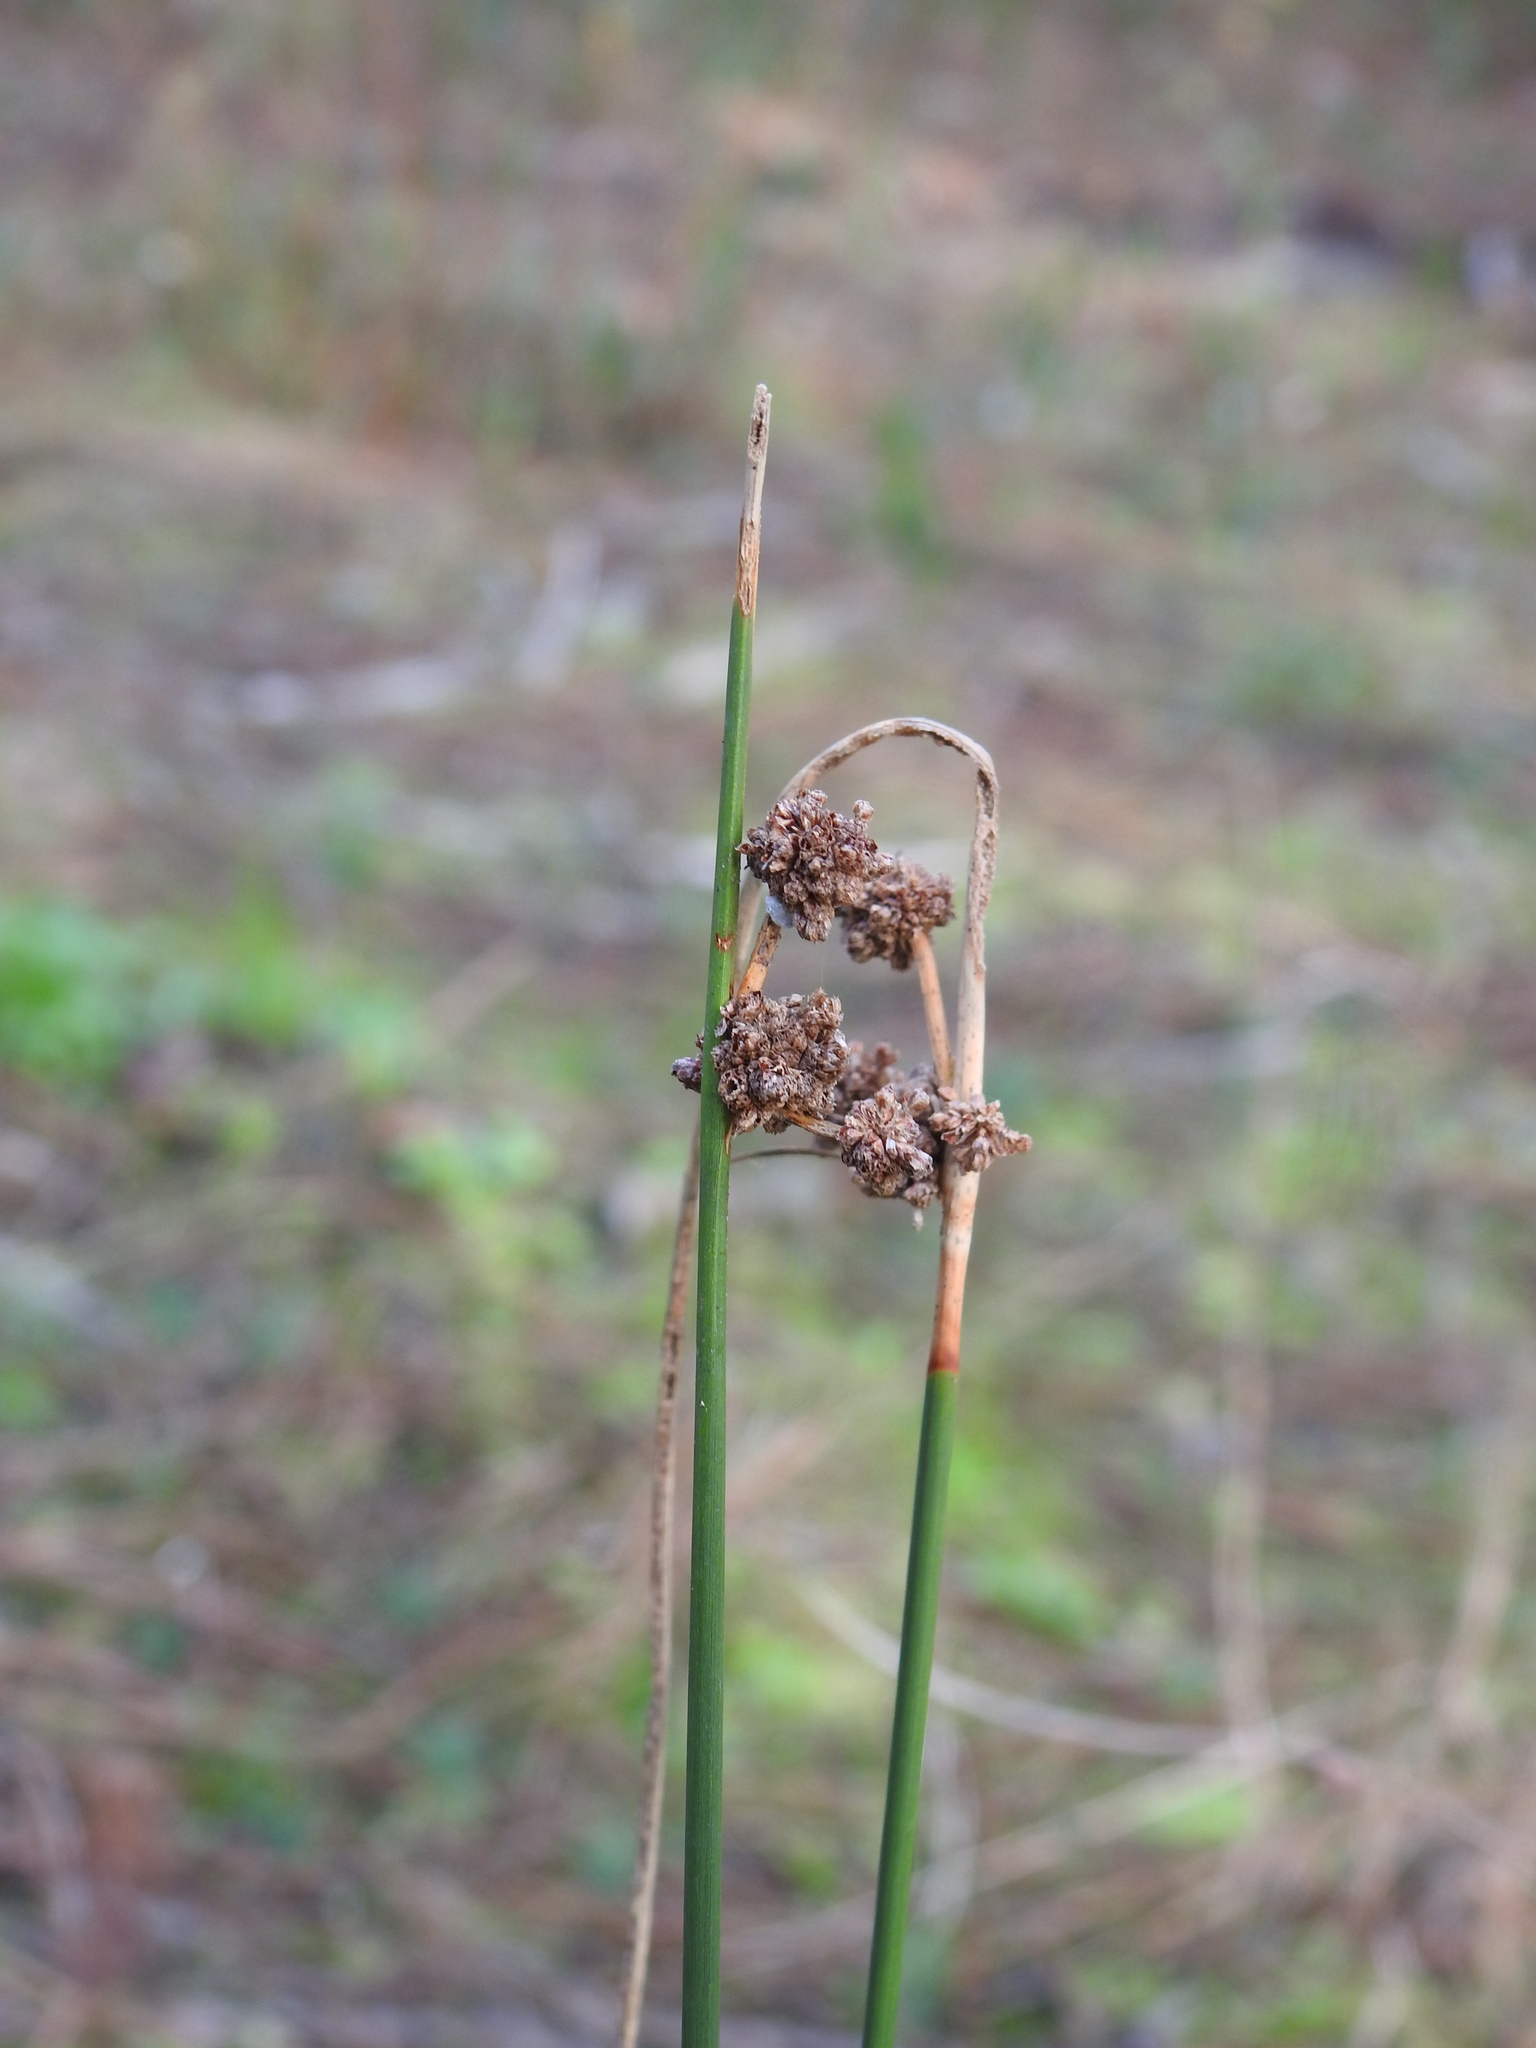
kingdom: Plantae
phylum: Tracheophyta
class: Liliopsida
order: Poales
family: Cyperaceae
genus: Scirpoides
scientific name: Scirpoides holoschoenus
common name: Round-headed club-rush
